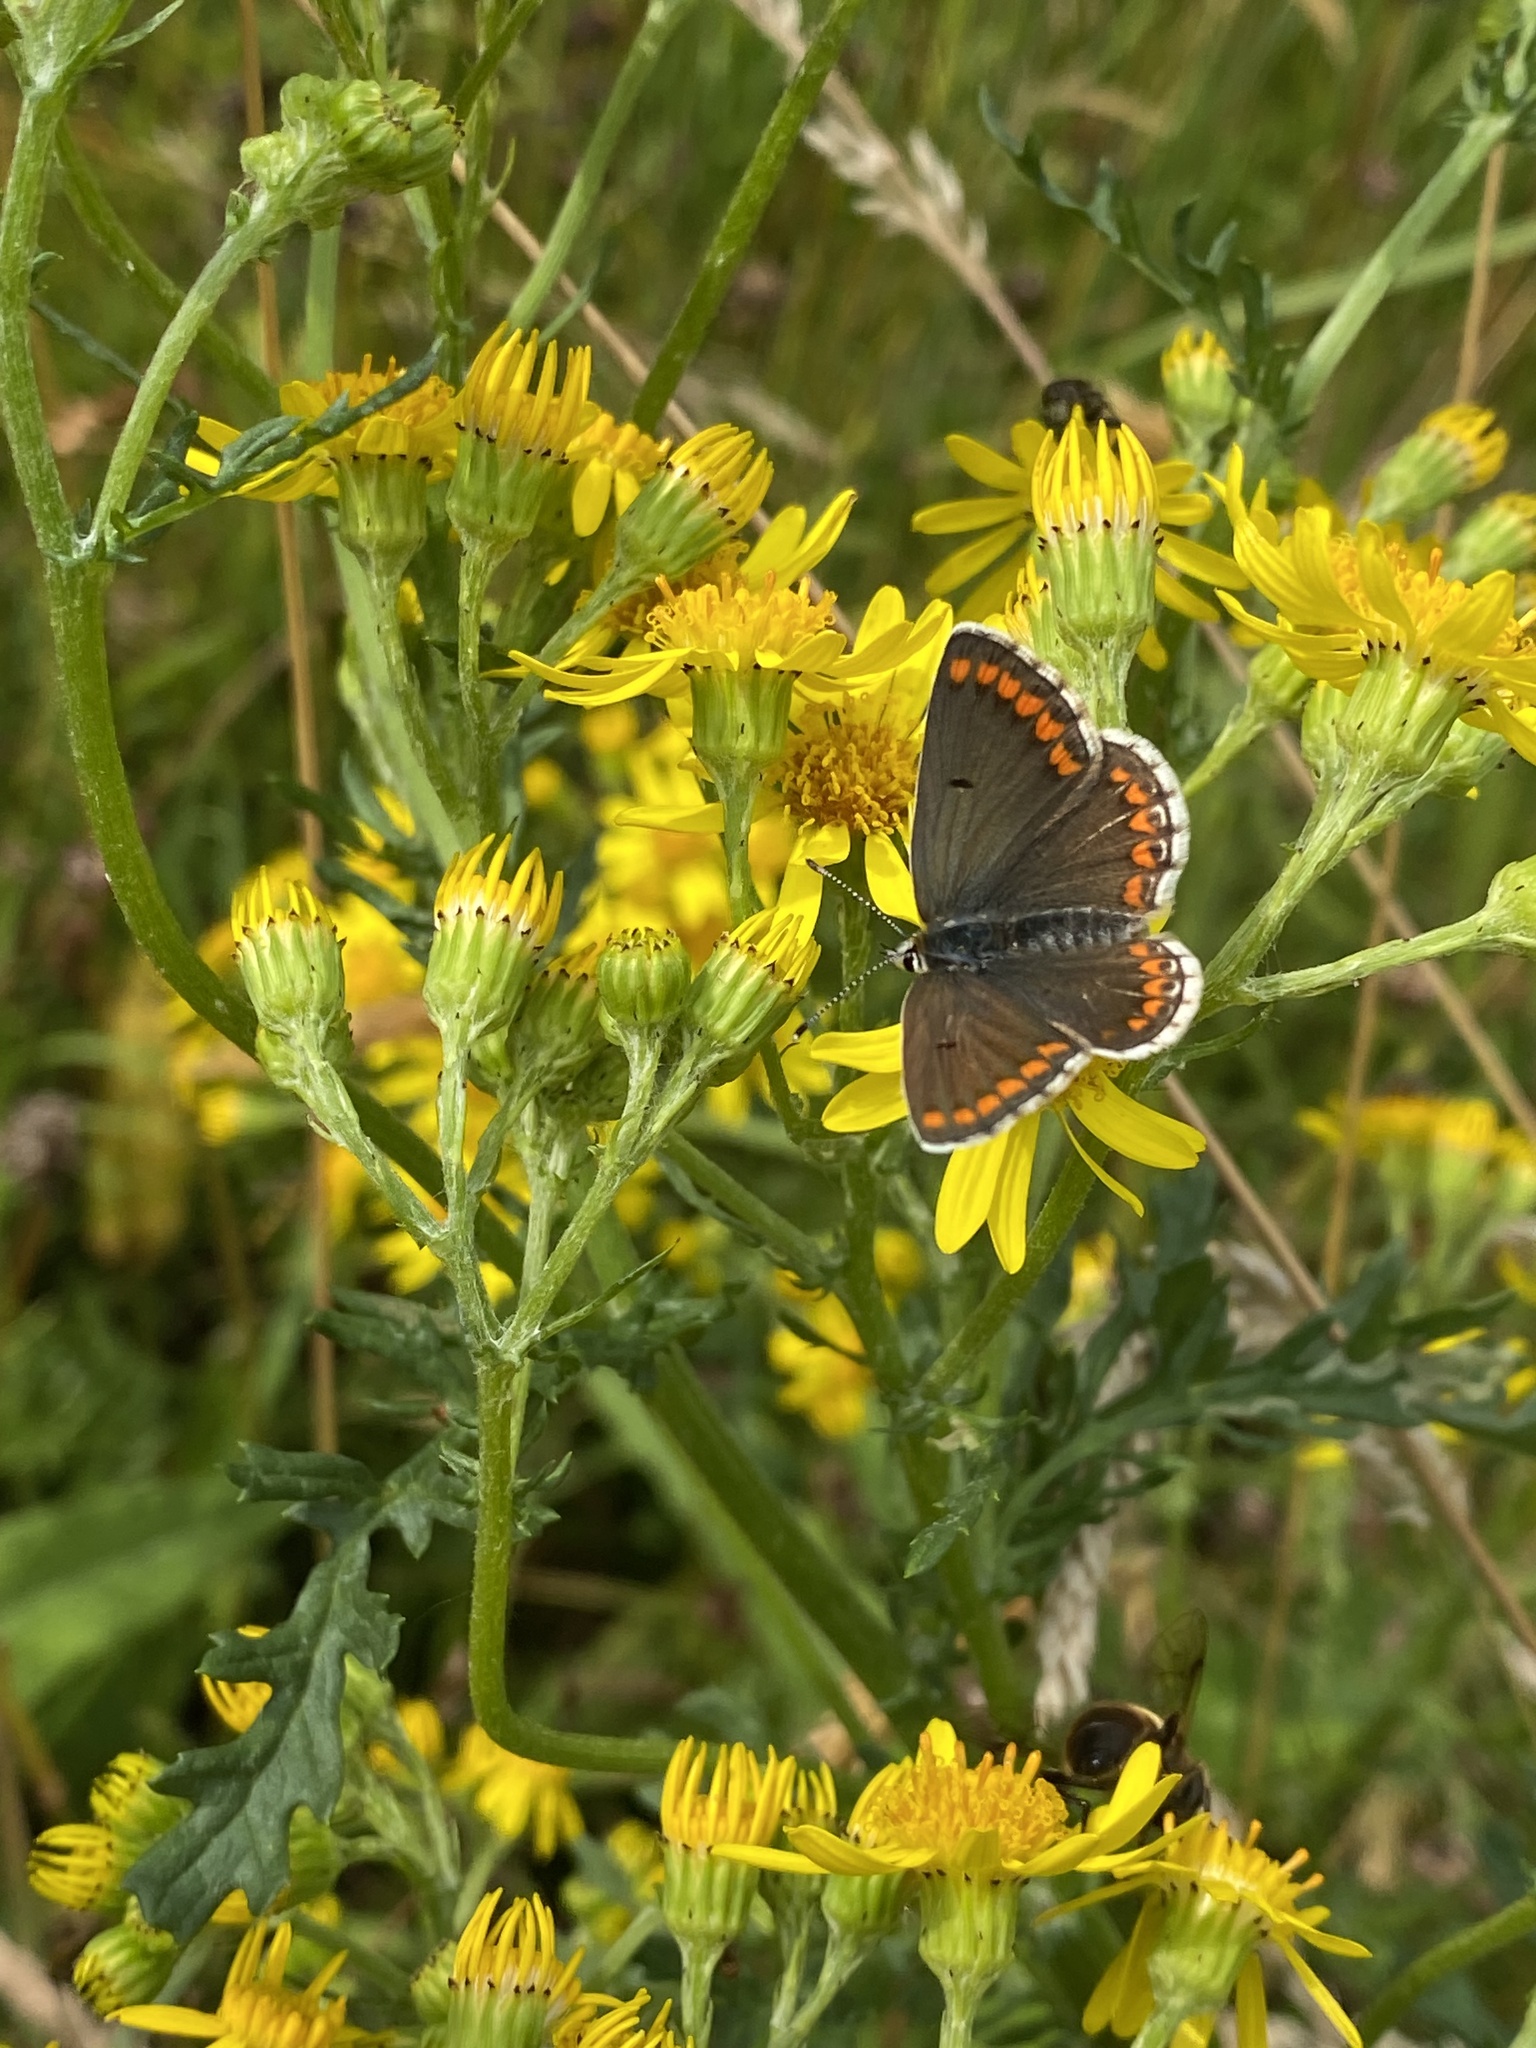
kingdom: Animalia
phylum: Arthropoda
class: Insecta
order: Lepidoptera
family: Lycaenidae
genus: Aricia
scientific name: Aricia agestis
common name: Brown argus
